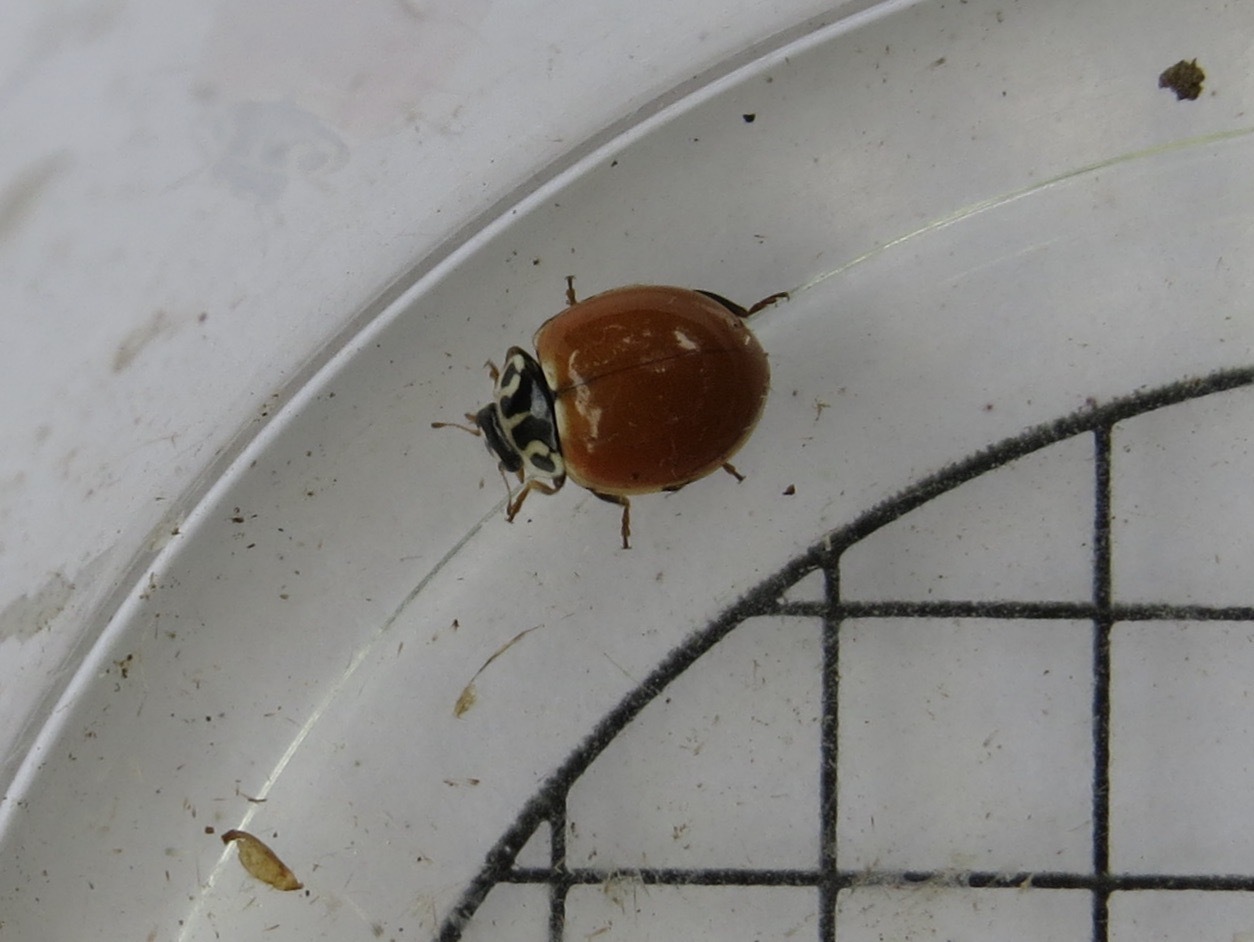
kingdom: Animalia
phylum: Arthropoda
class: Insecta
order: Coleoptera
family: Coccinellidae
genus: Cycloneda
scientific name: Cycloneda polita
